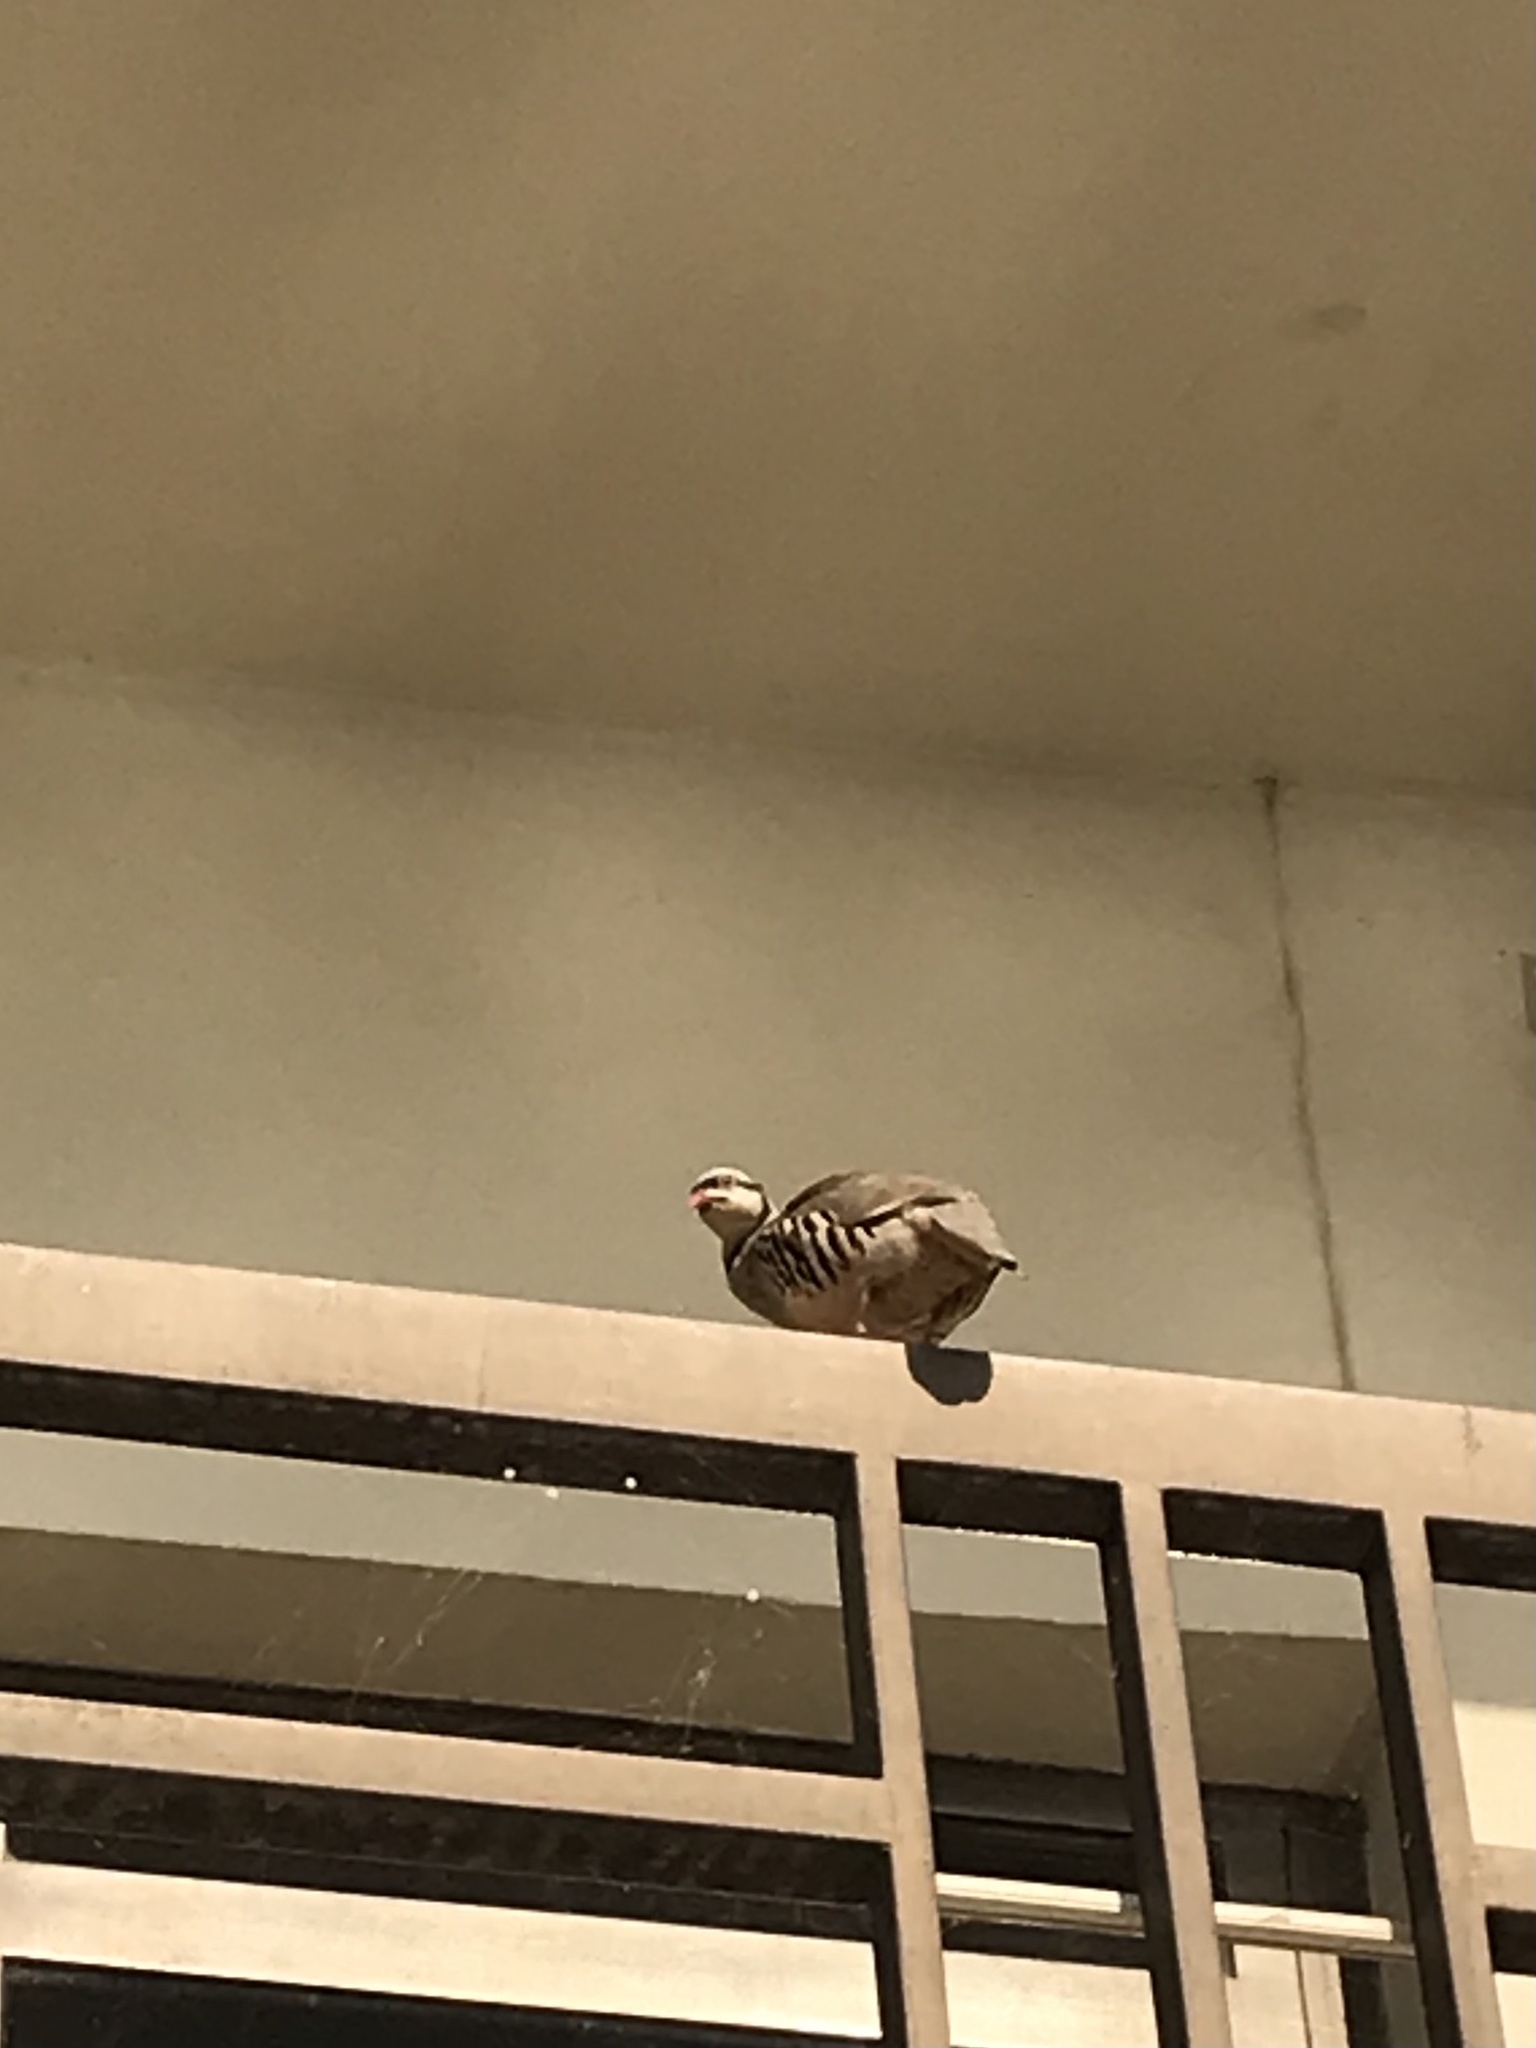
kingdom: Animalia
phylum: Chordata
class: Aves
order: Galliformes
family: Phasianidae
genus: Alectoris
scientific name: Alectoris chukar
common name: Chukar
